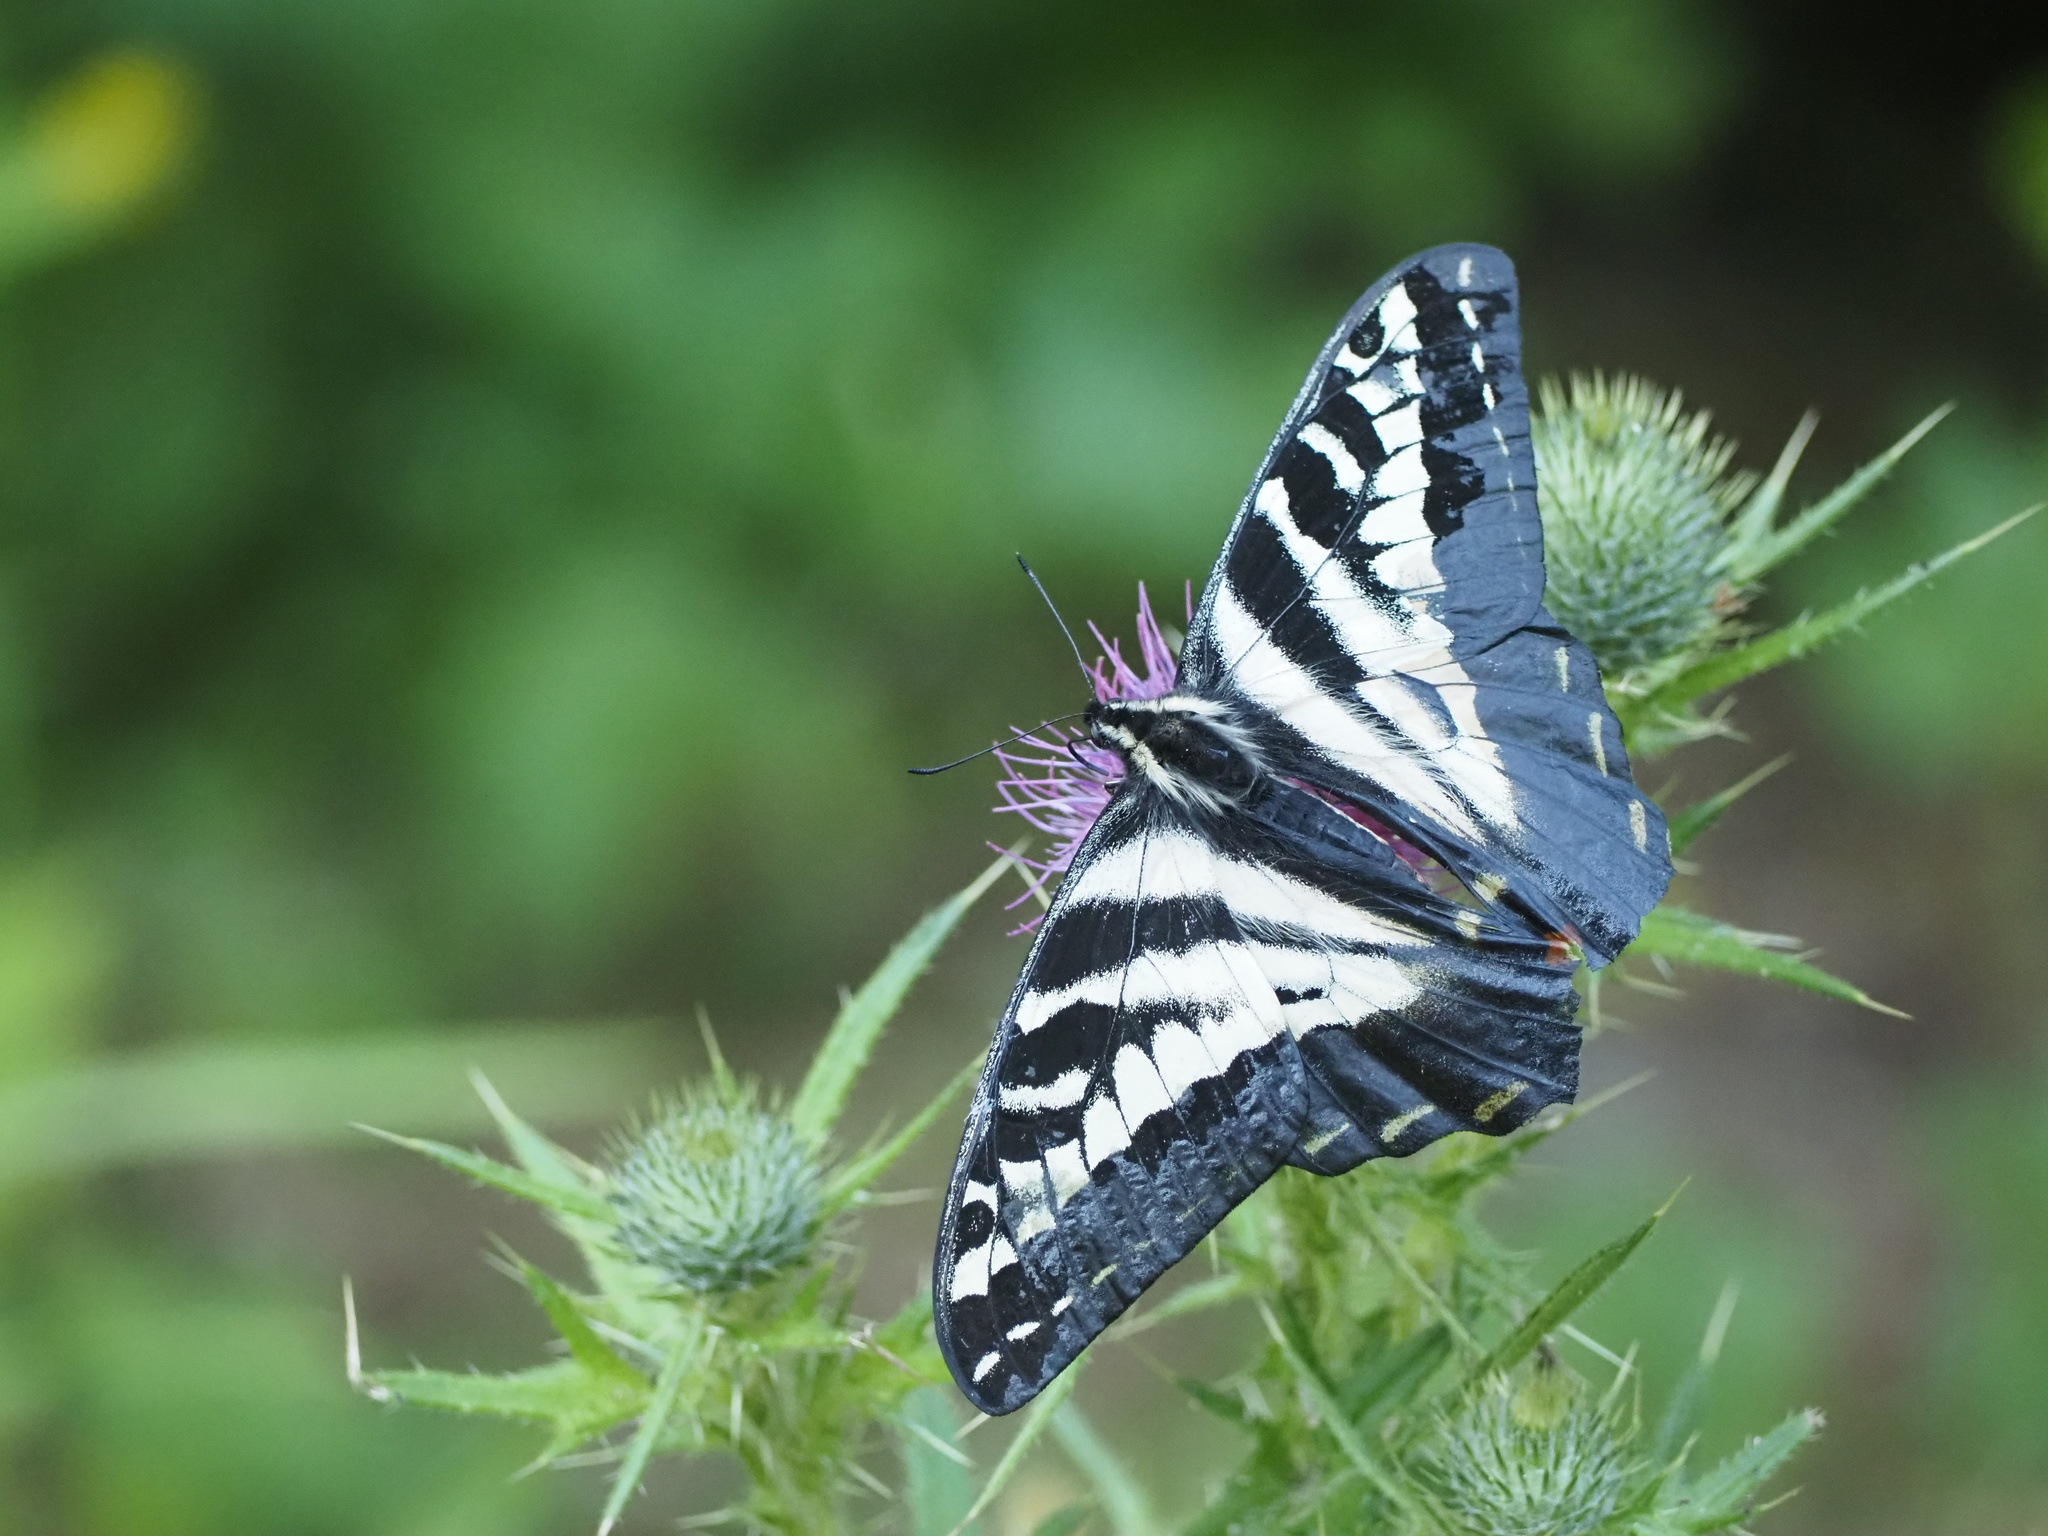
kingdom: Animalia
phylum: Arthropoda
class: Insecta
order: Lepidoptera
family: Papilionidae
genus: Papilio
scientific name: Papilio eurymedon
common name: Pale tiger swallowtail
